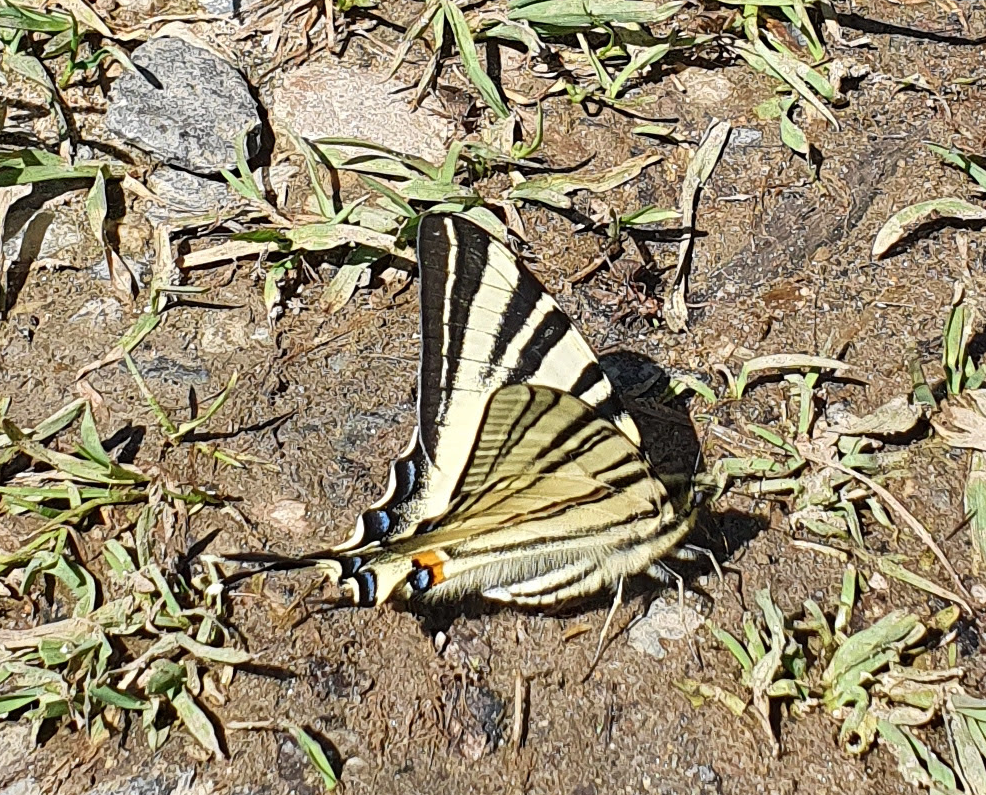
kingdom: Animalia
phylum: Arthropoda
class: Insecta
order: Lepidoptera
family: Papilionidae
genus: Iphiclides
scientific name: Iphiclides podalirius
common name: Scarce swallowtail
